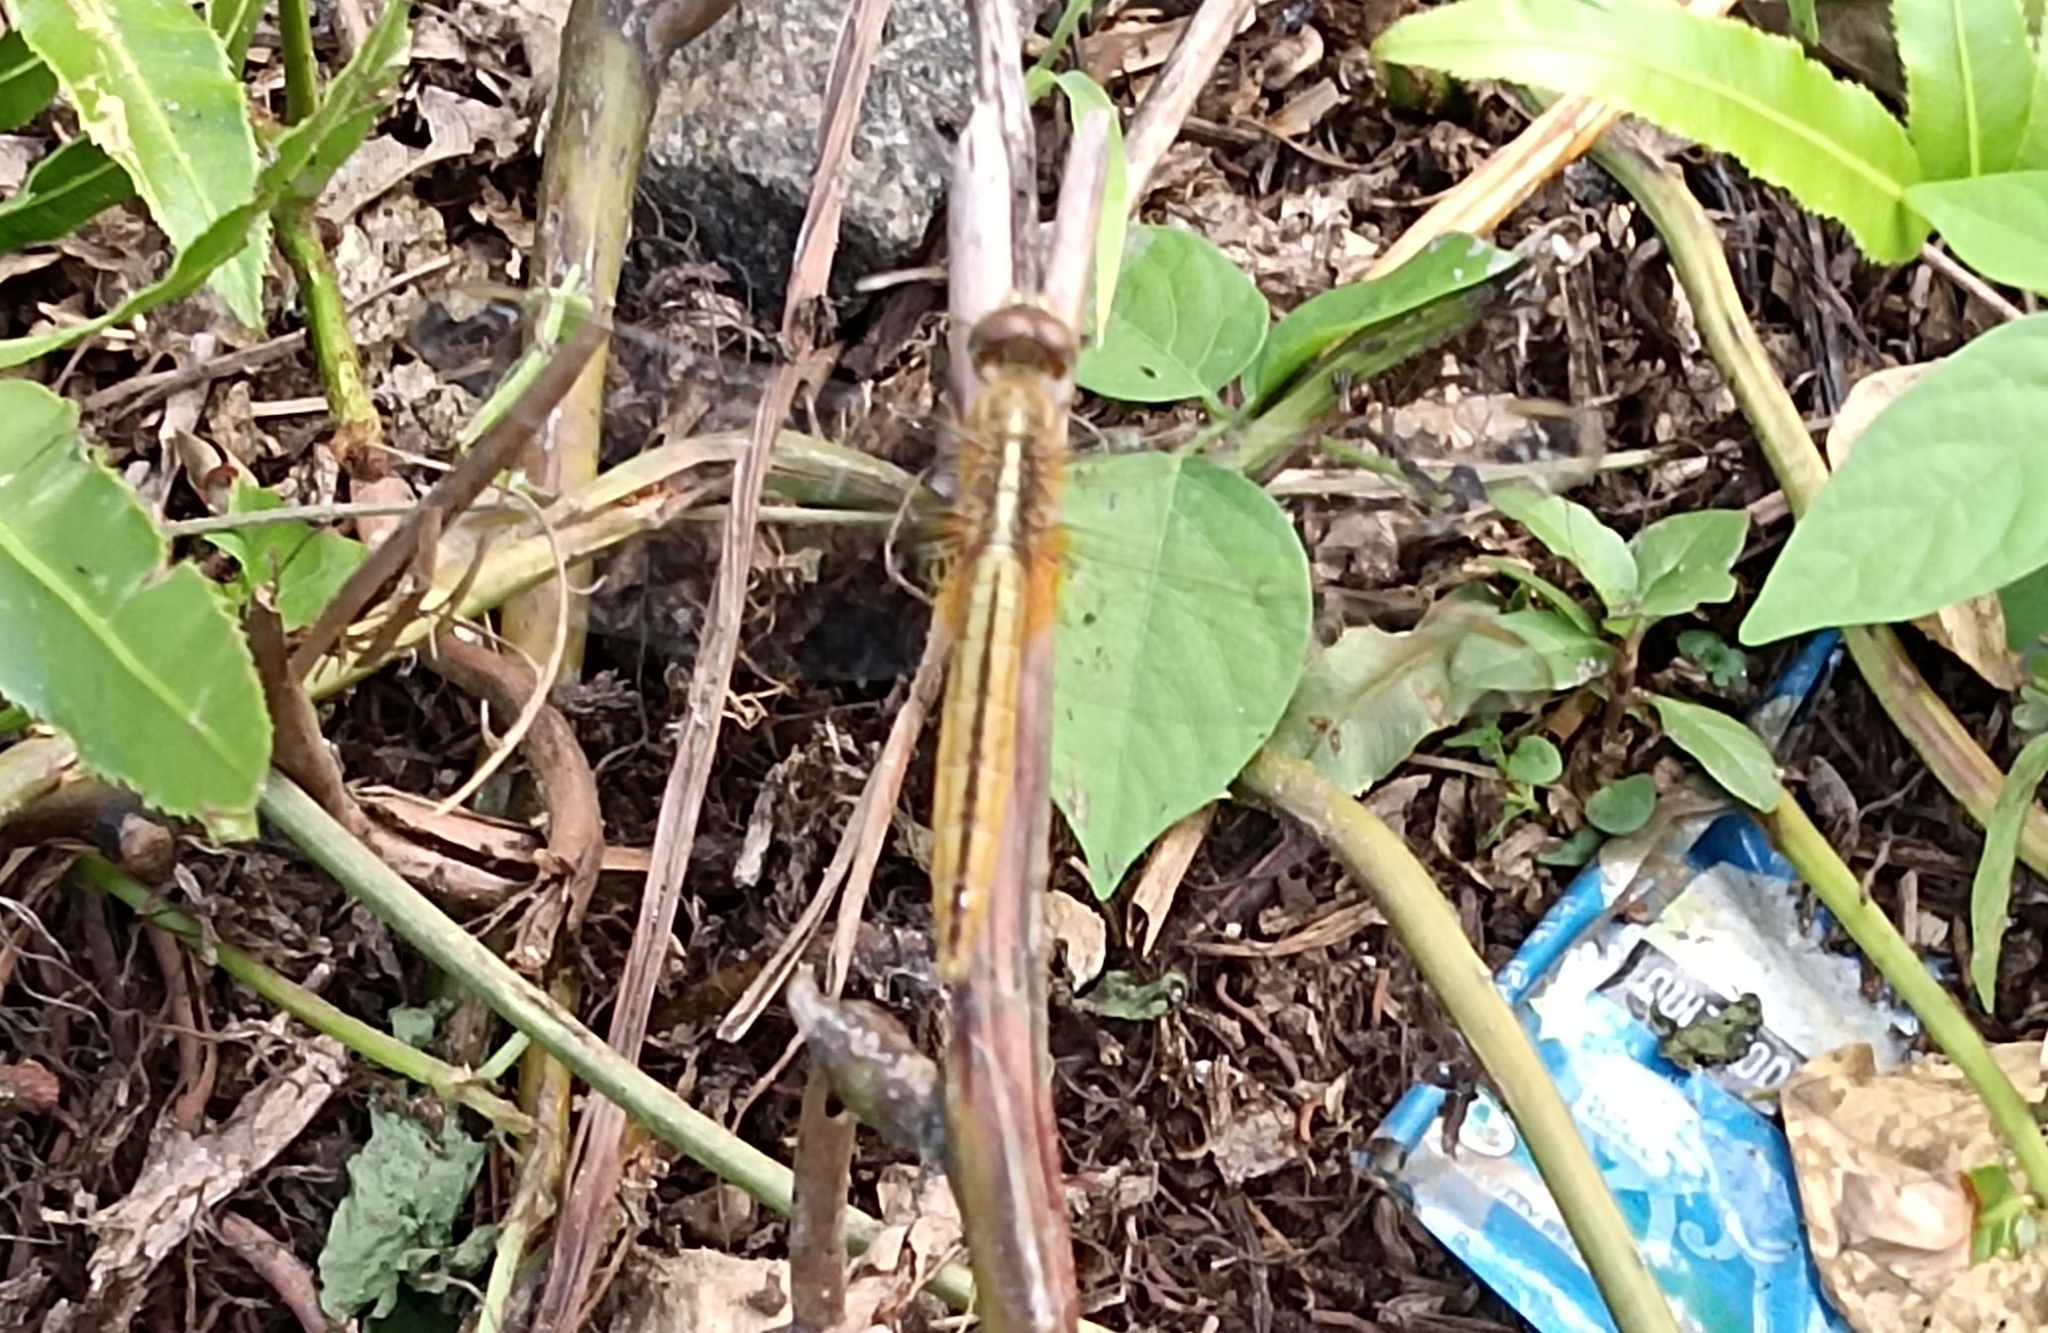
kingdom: Animalia
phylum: Arthropoda
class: Insecta
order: Odonata
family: Libellulidae
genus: Crocothemis
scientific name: Crocothemis servilia
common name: Scarlet skimmer
